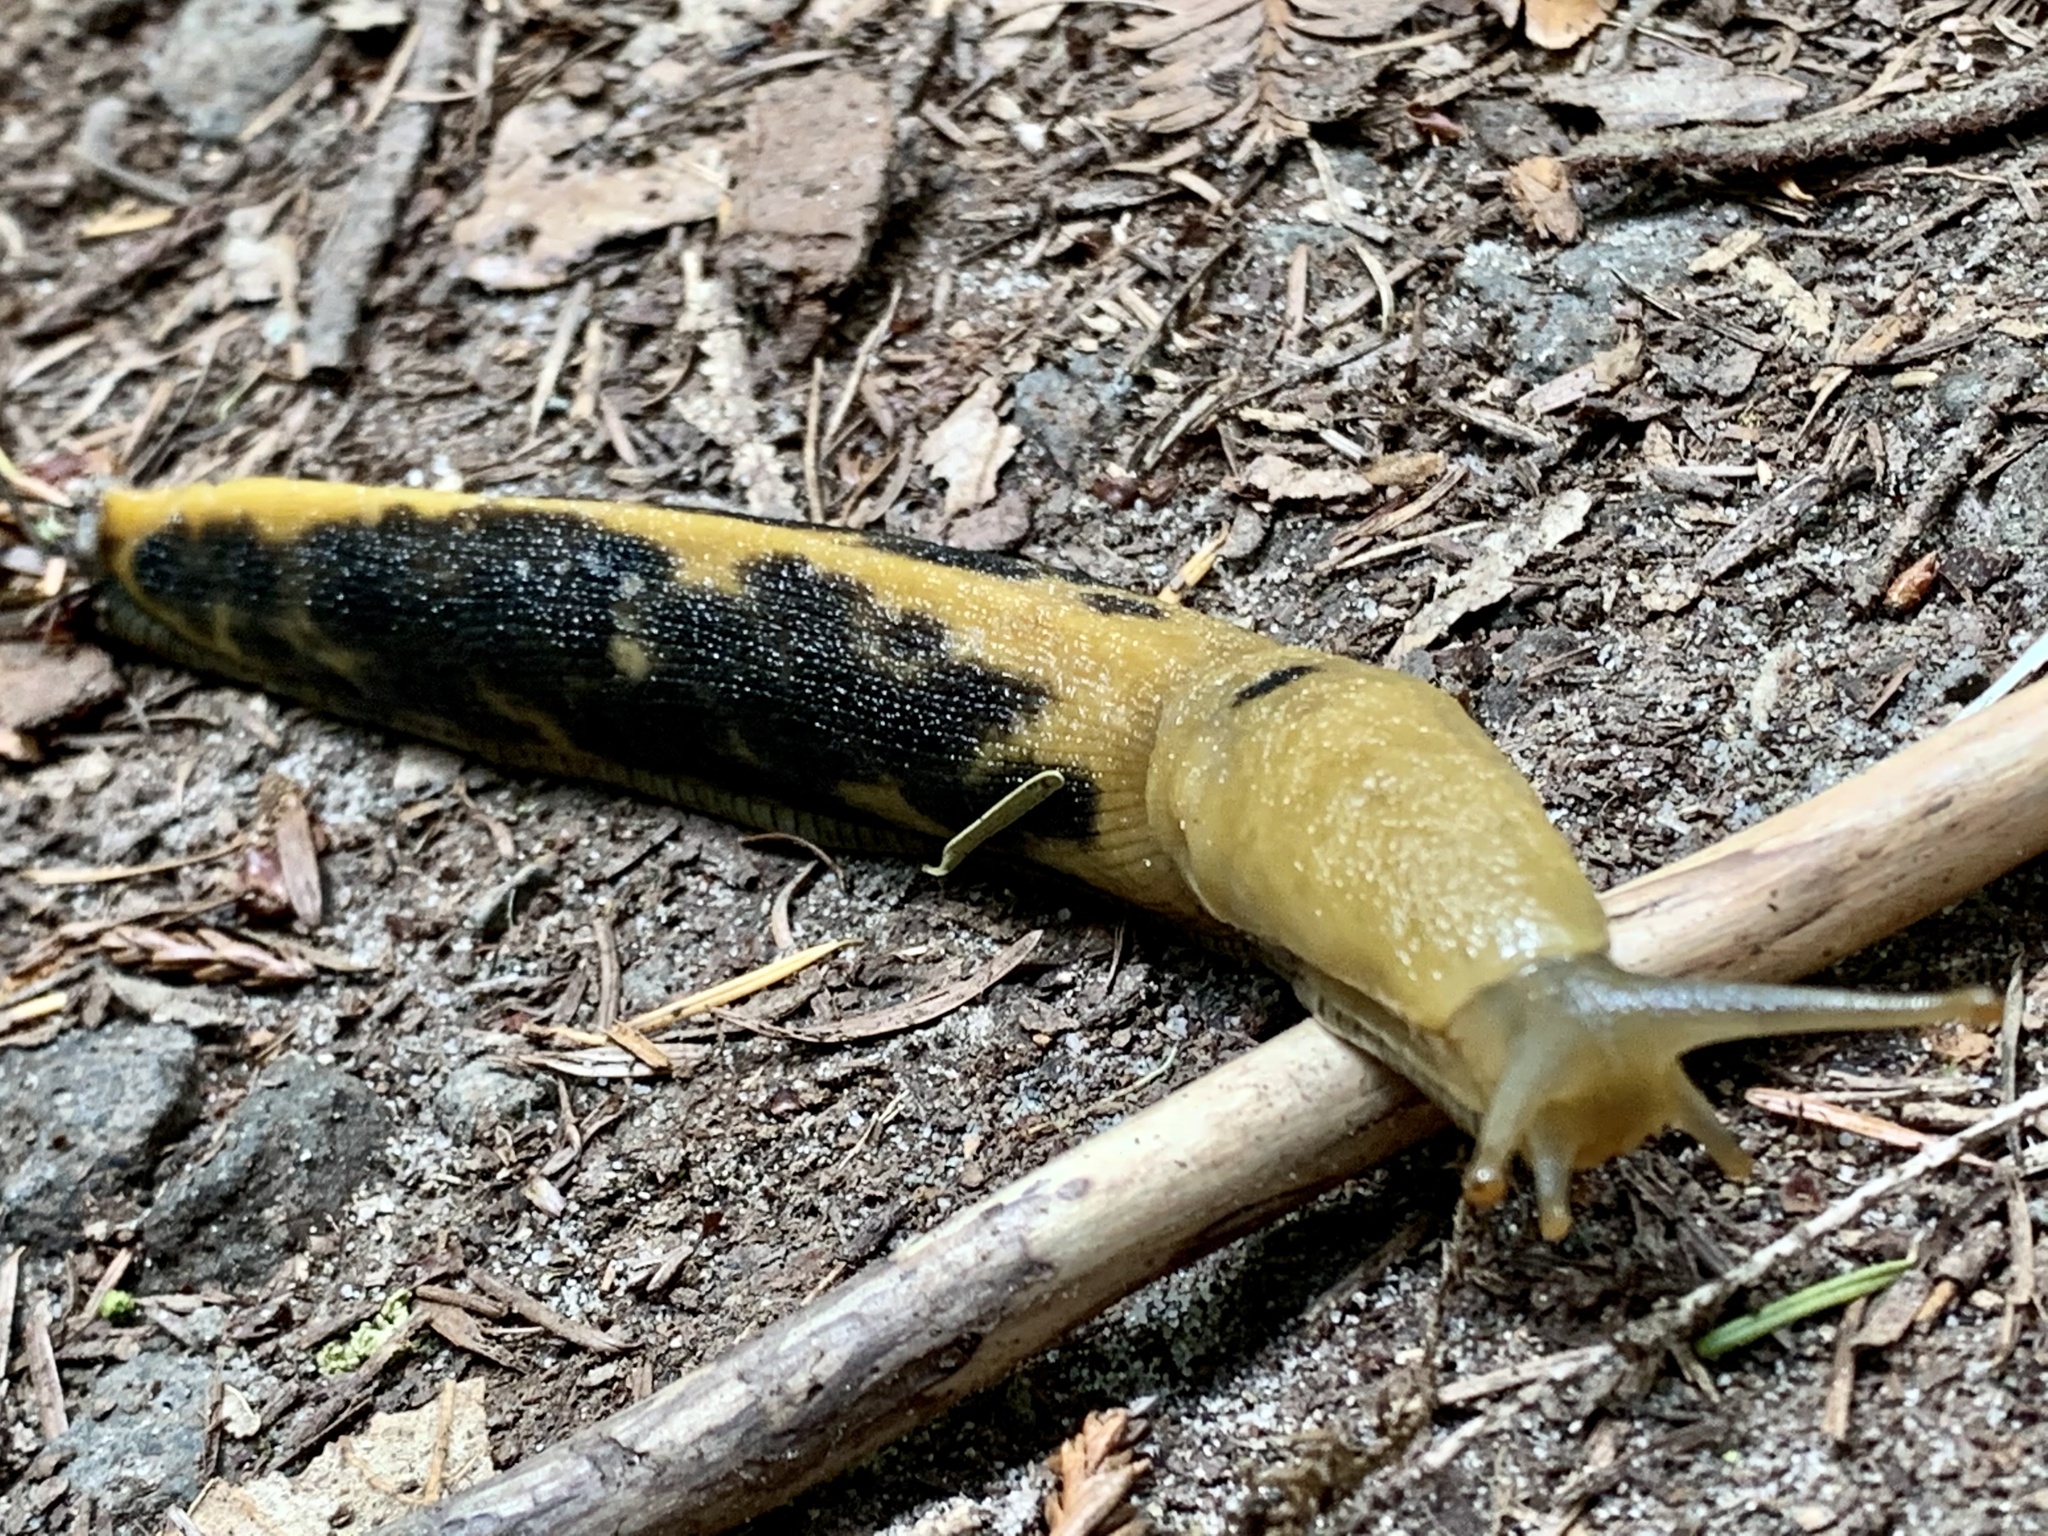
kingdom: Animalia
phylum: Mollusca
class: Gastropoda
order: Stylommatophora
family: Ariolimacidae
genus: Ariolimax
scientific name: Ariolimax buttoni
